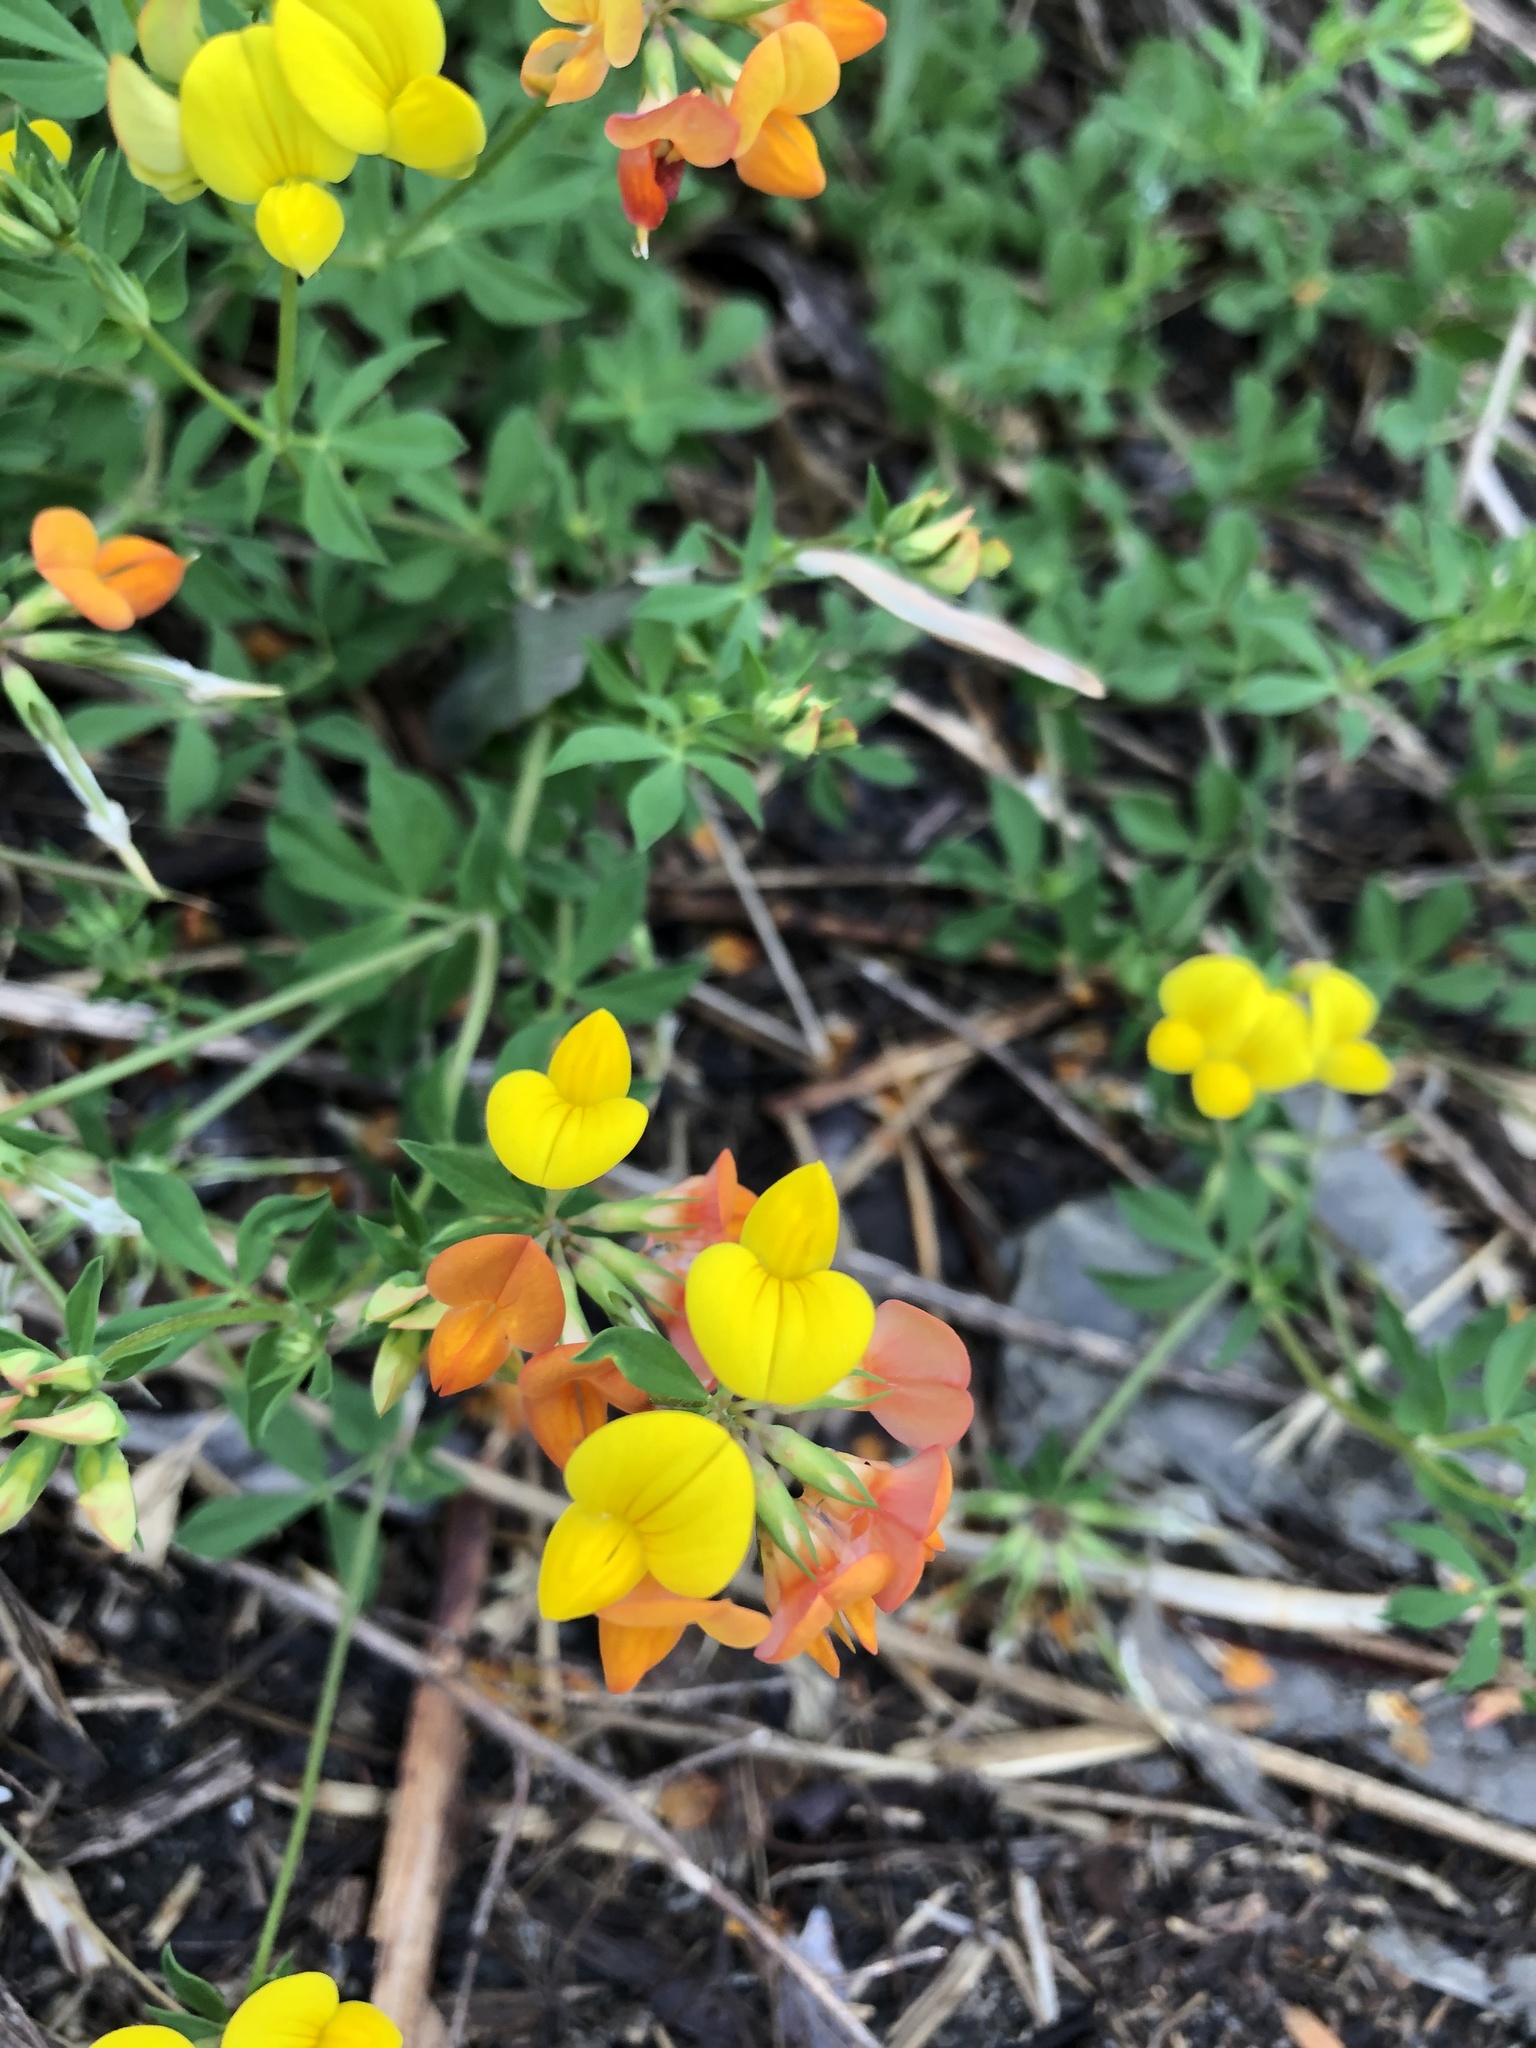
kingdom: Plantae
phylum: Tracheophyta
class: Magnoliopsida
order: Fabales
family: Fabaceae
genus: Lotus
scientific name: Lotus corniculatus
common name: Common bird's-foot-trefoil
